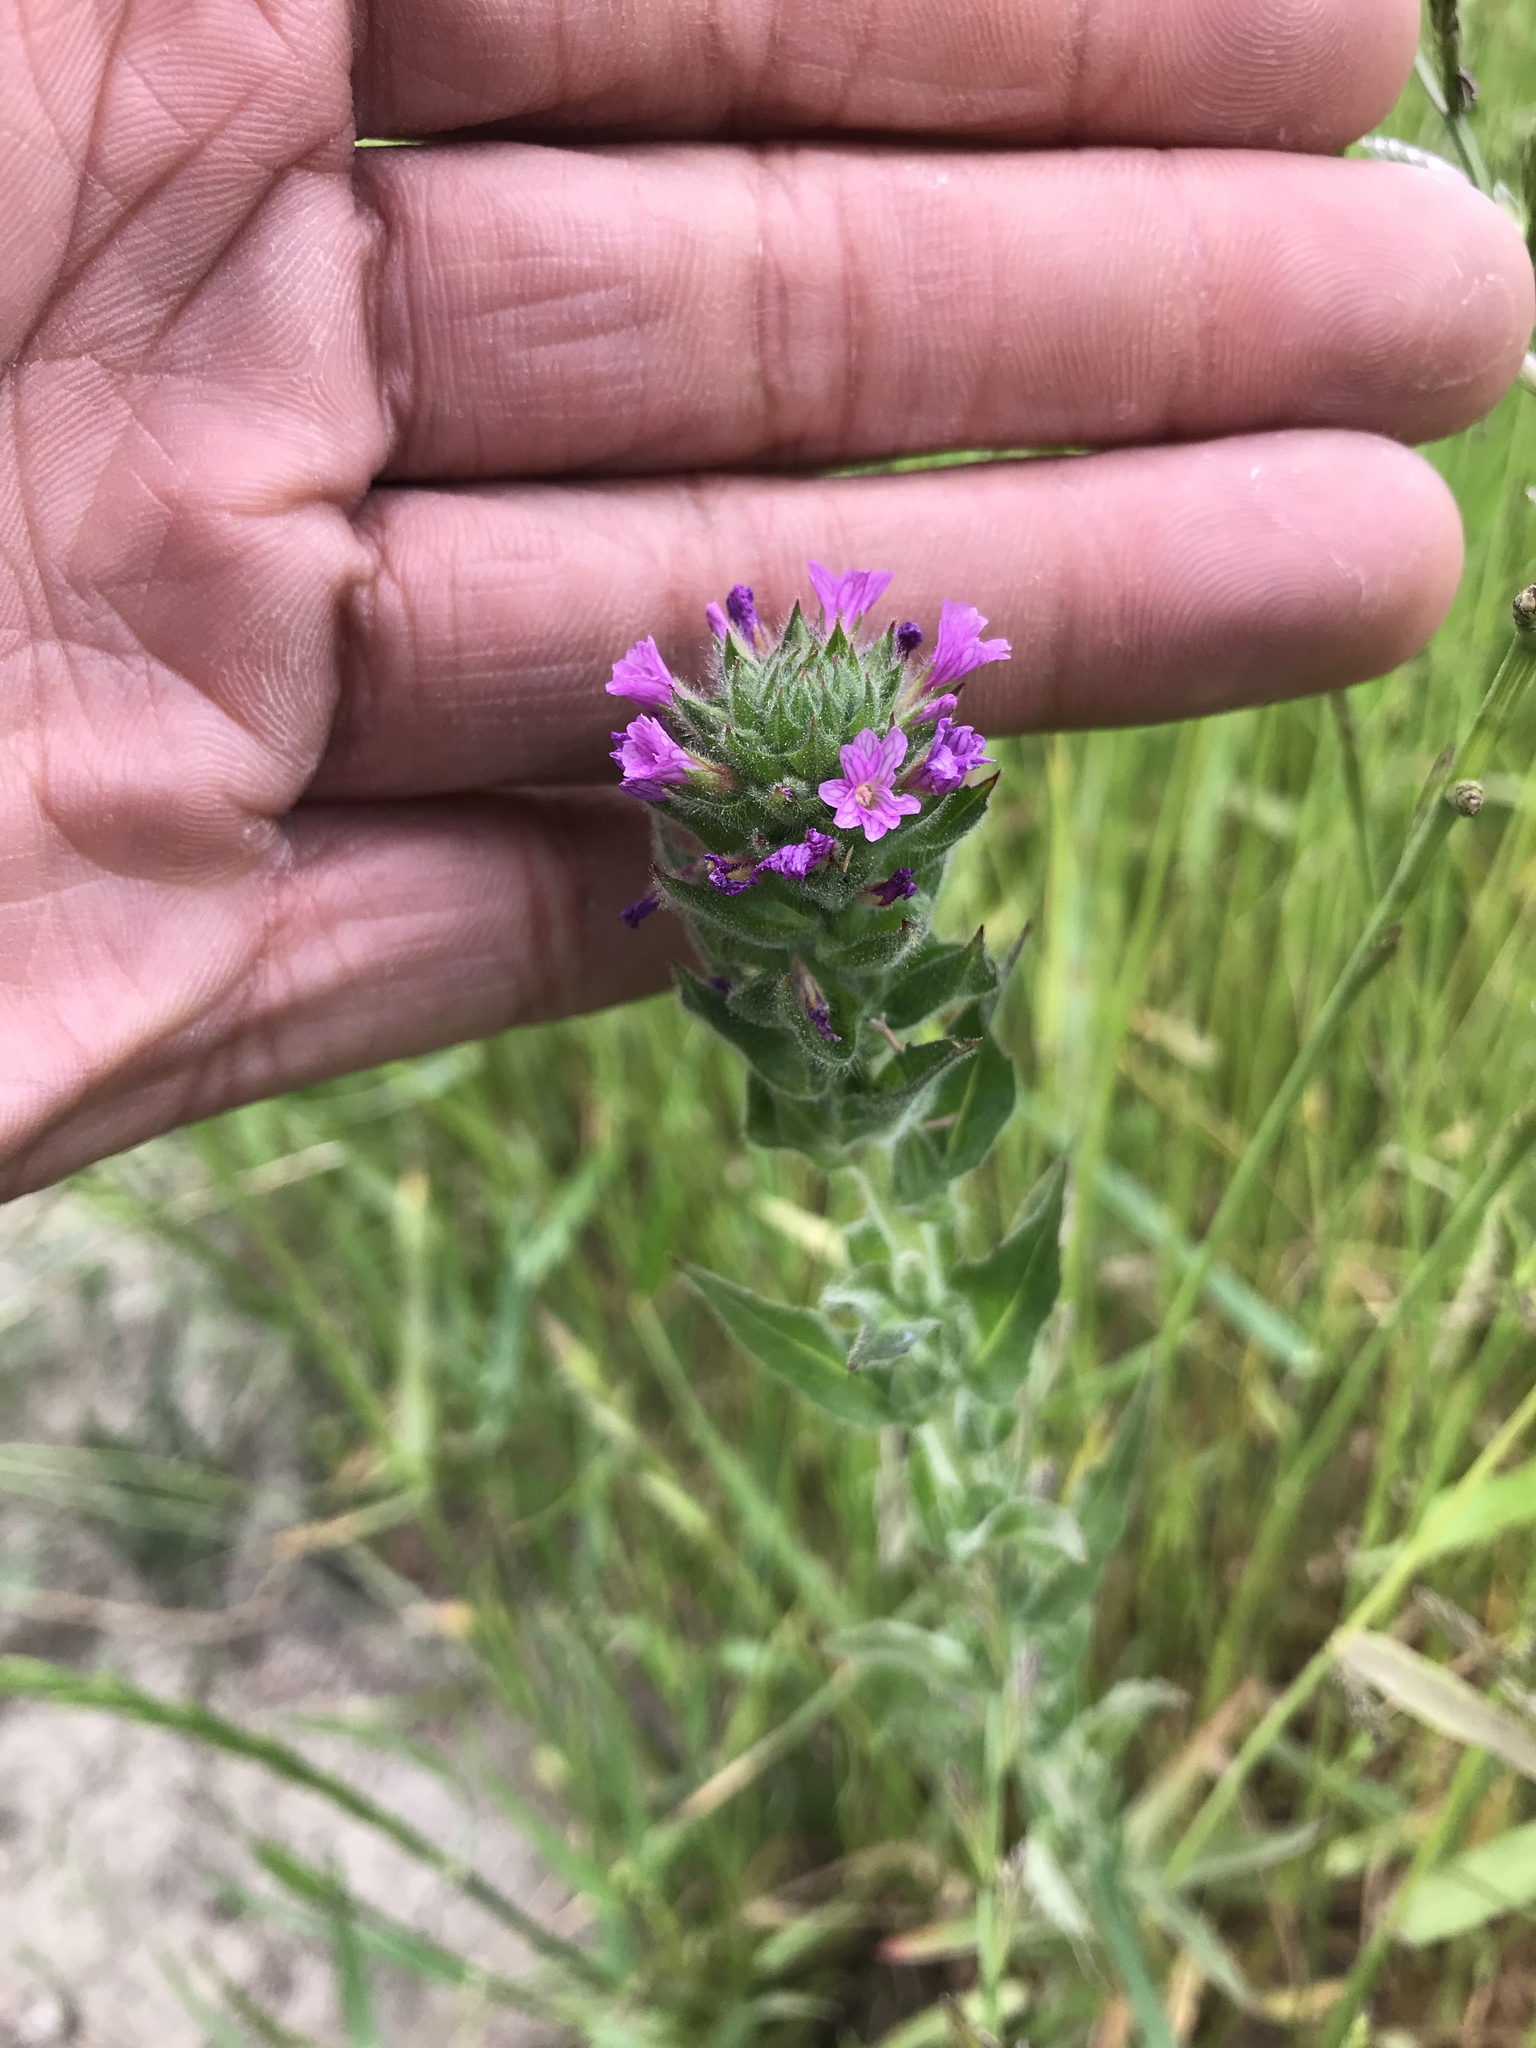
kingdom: Plantae
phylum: Tracheophyta
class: Magnoliopsida
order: Myrtales
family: Onagraceae
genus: Epilobium
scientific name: Epilobium densiflorum
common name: Dense spike-primrose
